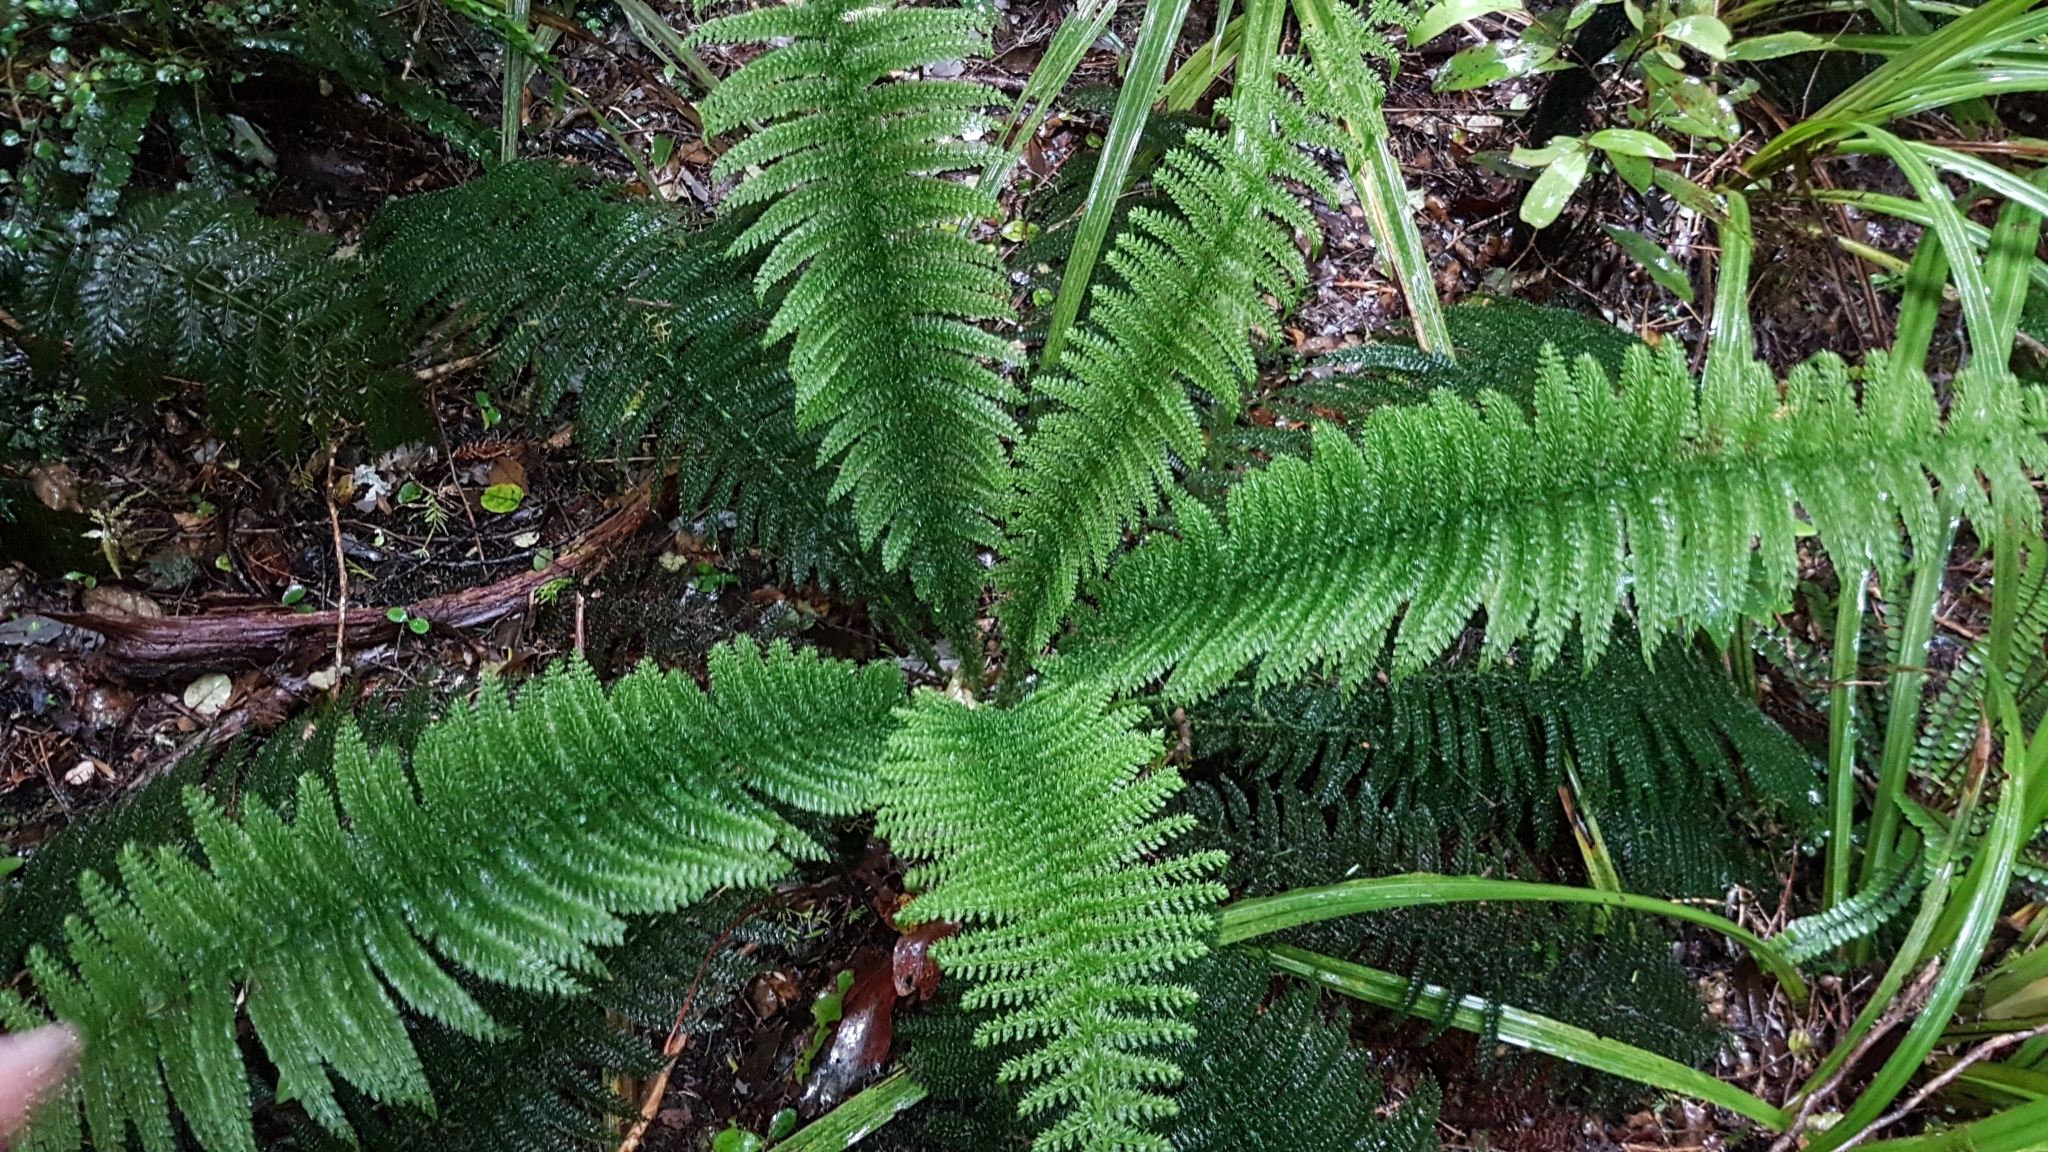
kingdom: Plantae
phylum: Tracheophyta
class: Polypodiopsida
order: Osmundales
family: Osmundaceae
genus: Leptopteris
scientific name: Leptopteris superba
